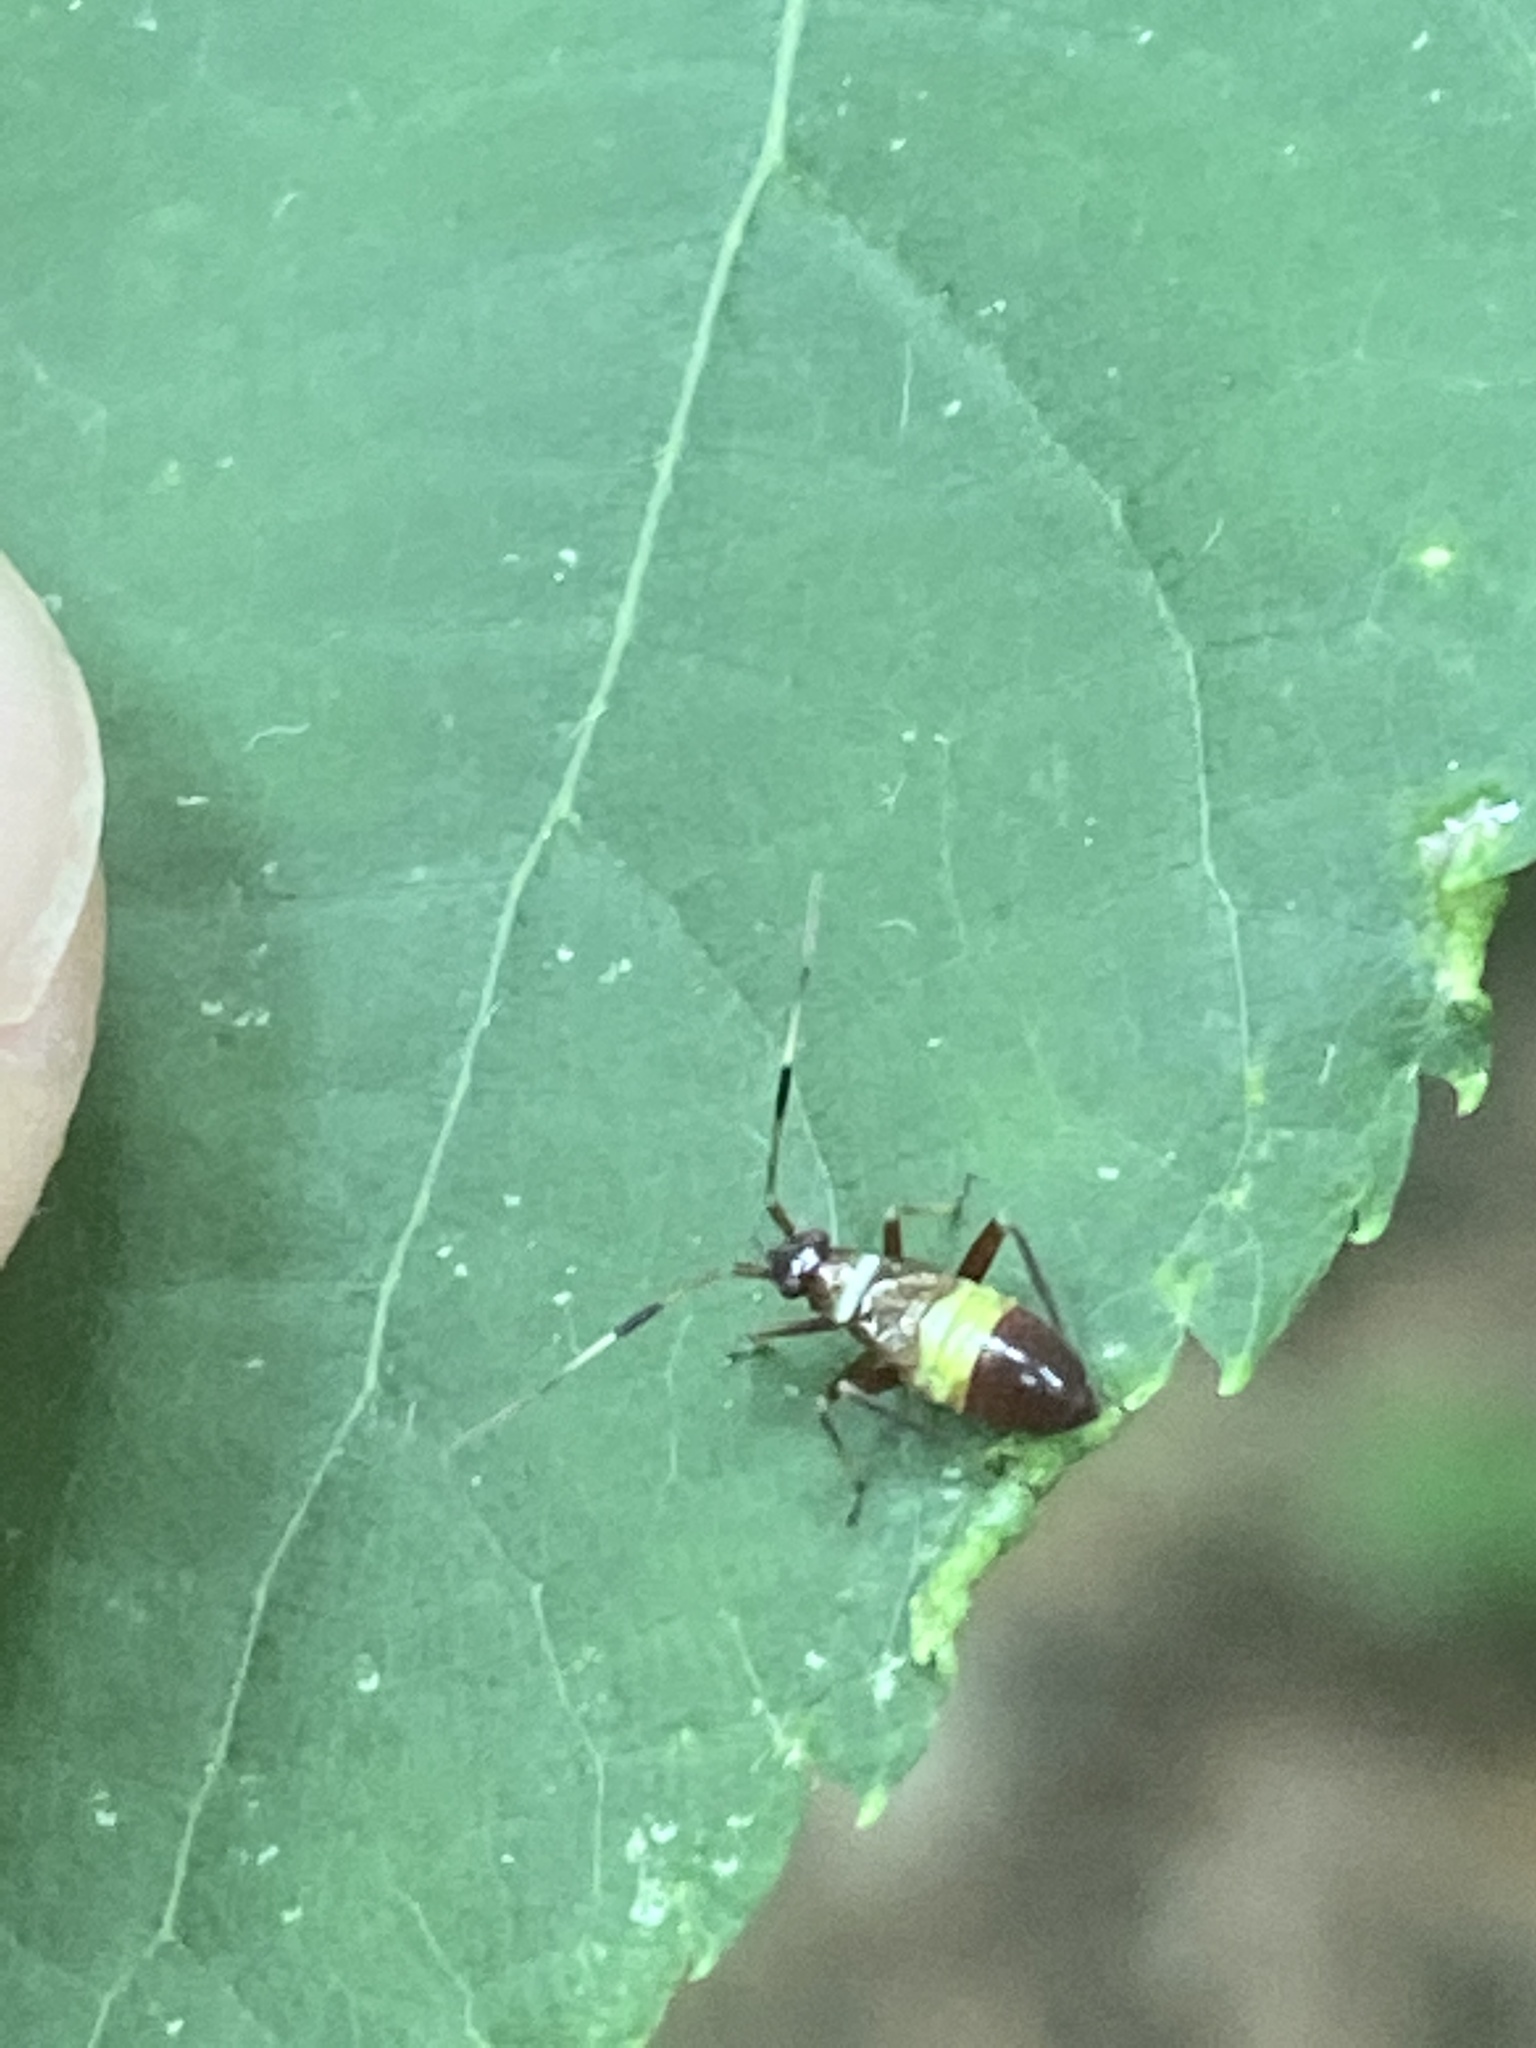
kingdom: Animalia
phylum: Arthropoda
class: Insecta
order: Hemiptera
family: Miridae
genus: Closterotomus
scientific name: Closterotomus biclavatus
